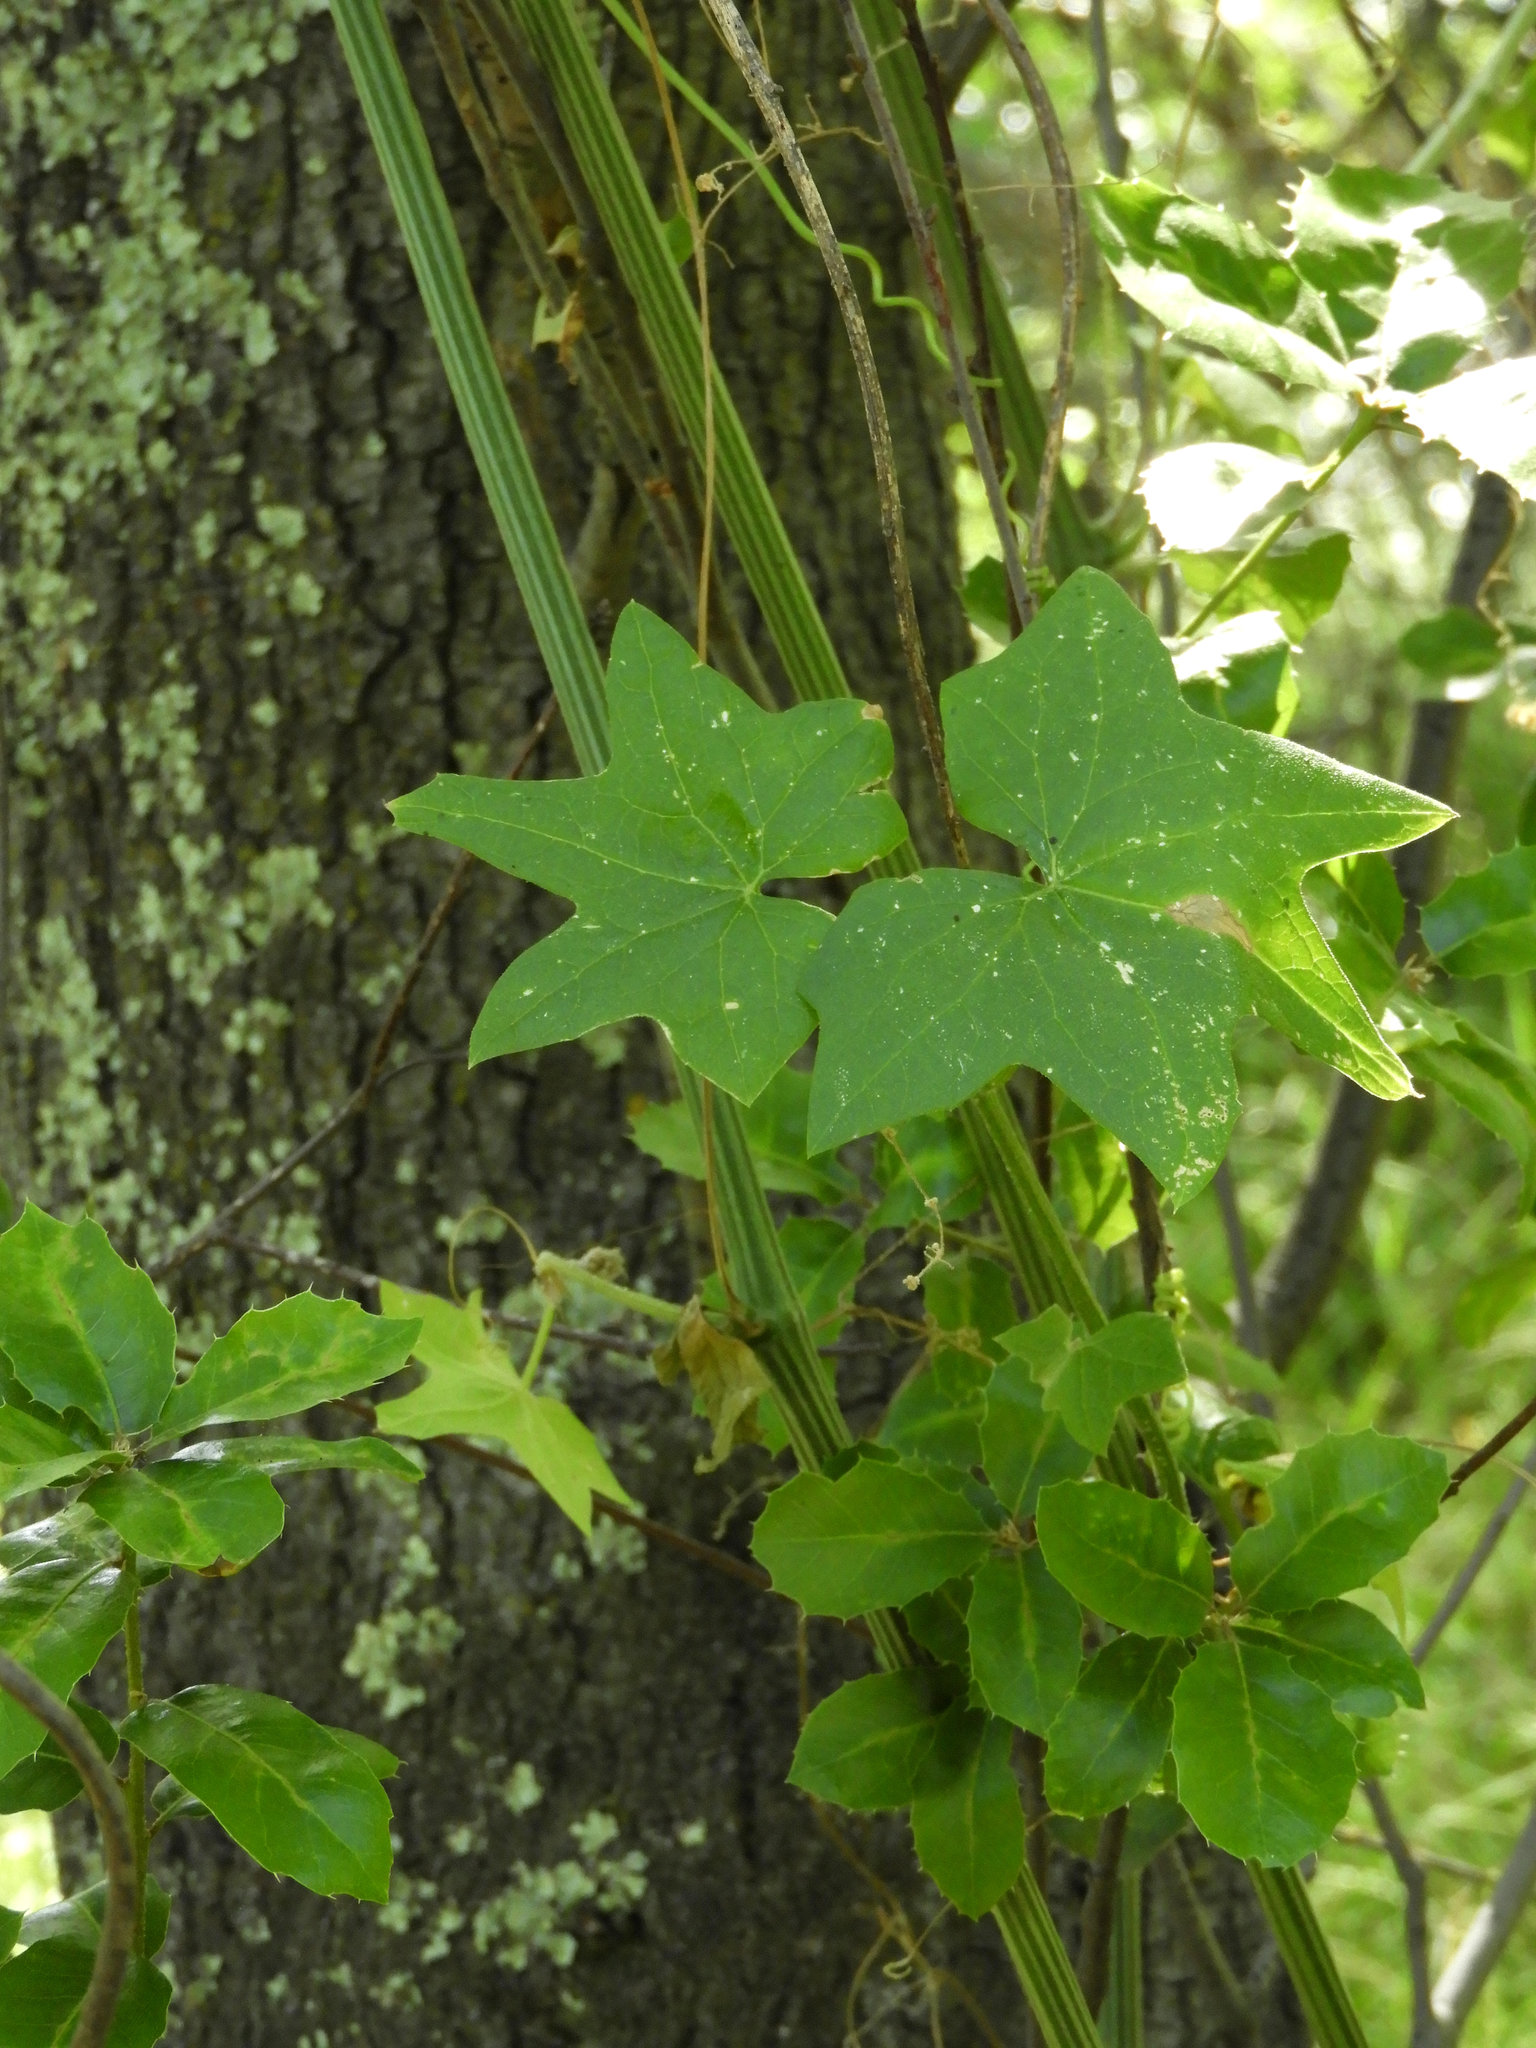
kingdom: Plantae
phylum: Tracheophyta
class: Magnoliopsida
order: Cucurbitales
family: Cucurbitaceae
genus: Marah
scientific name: Marah fabacea
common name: California manroot
